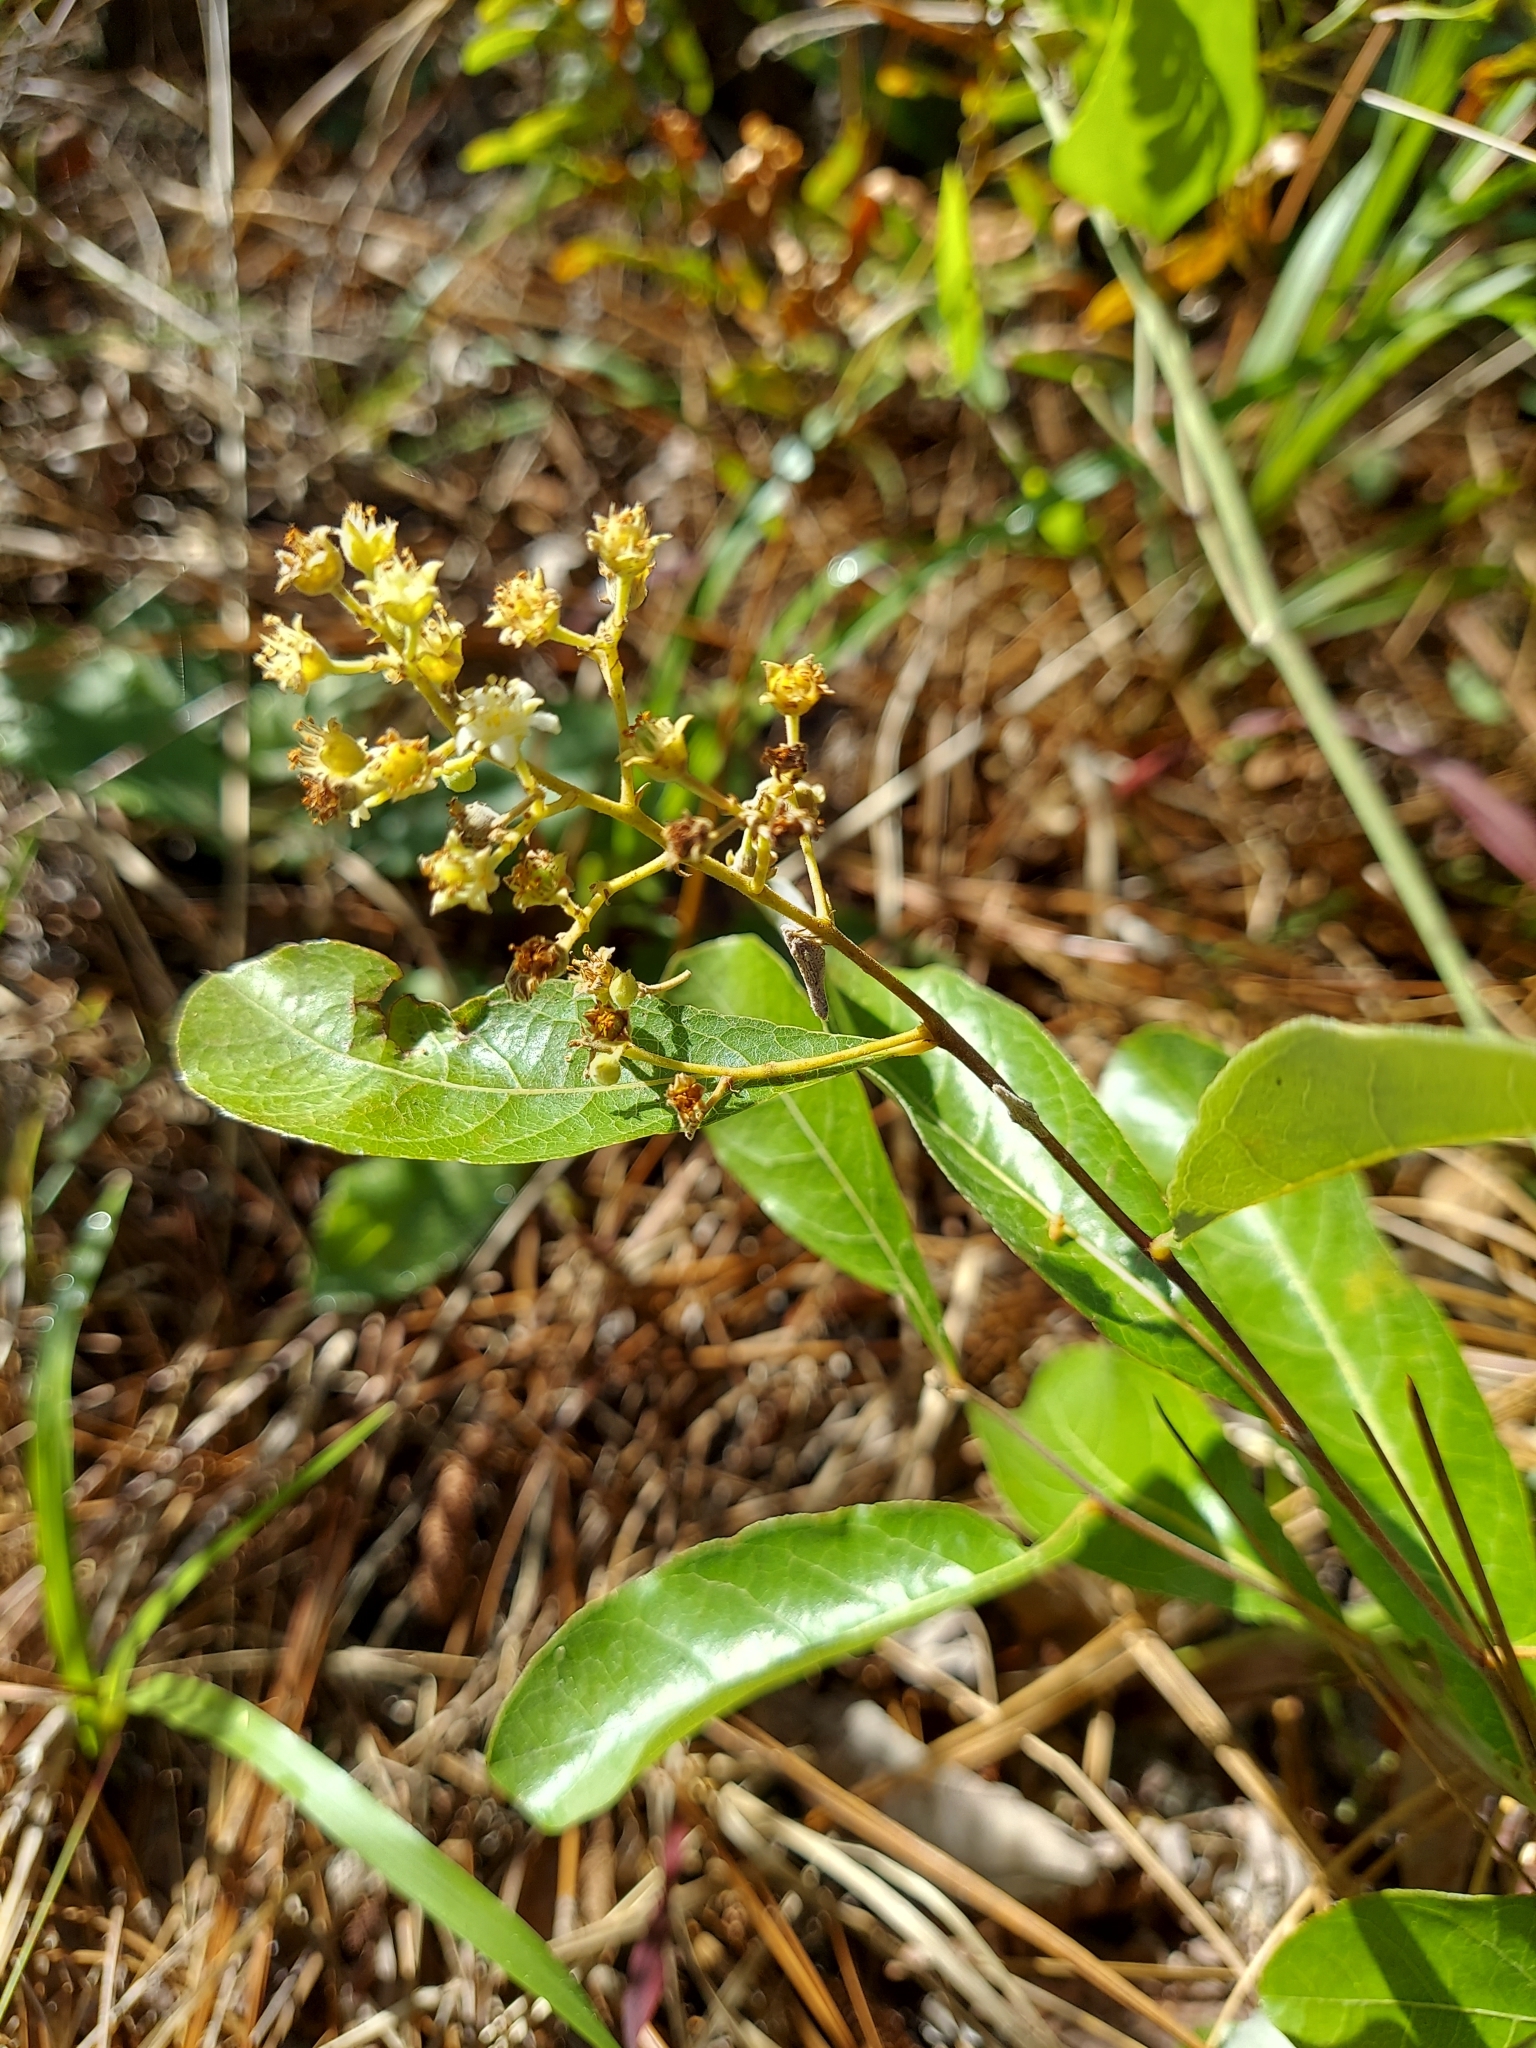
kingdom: Plantae
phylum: Tracheophyta
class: Magnoliopsida
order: Malpighiales
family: Chrysobalanaceae
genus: Geobalanus
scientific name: Geobalanus oblongifolius
